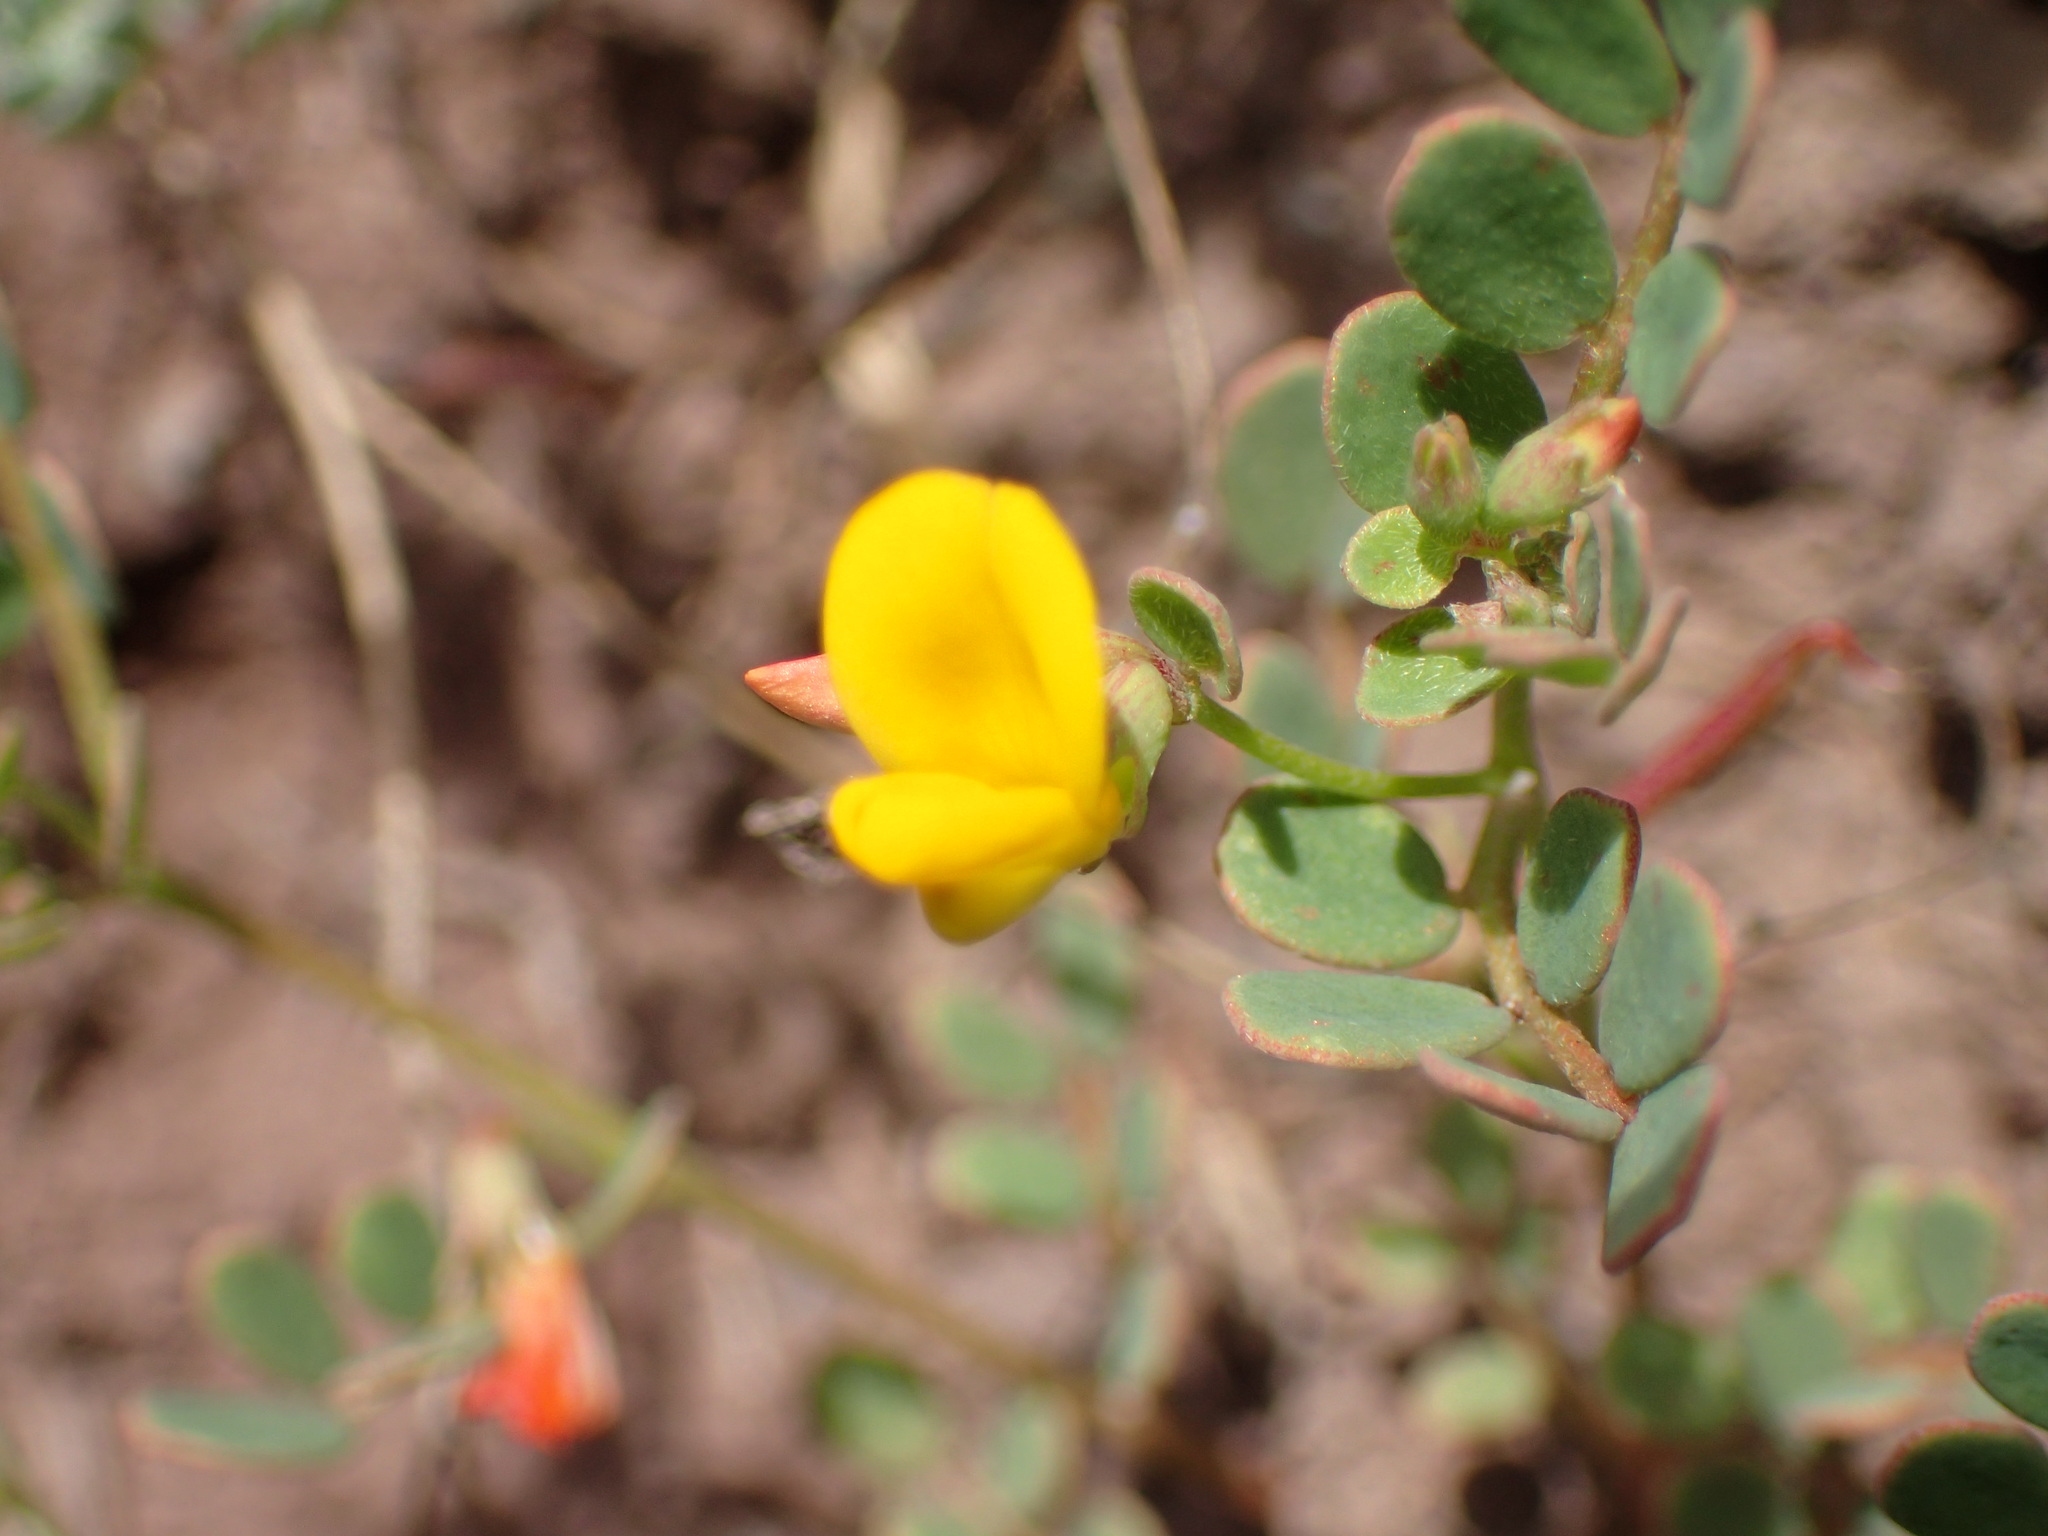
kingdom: Plantae
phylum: Tracheophyta
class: Magnoliopsida
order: Fabales
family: Fabaceae
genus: Acmispon
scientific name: Acmispon maritimus
